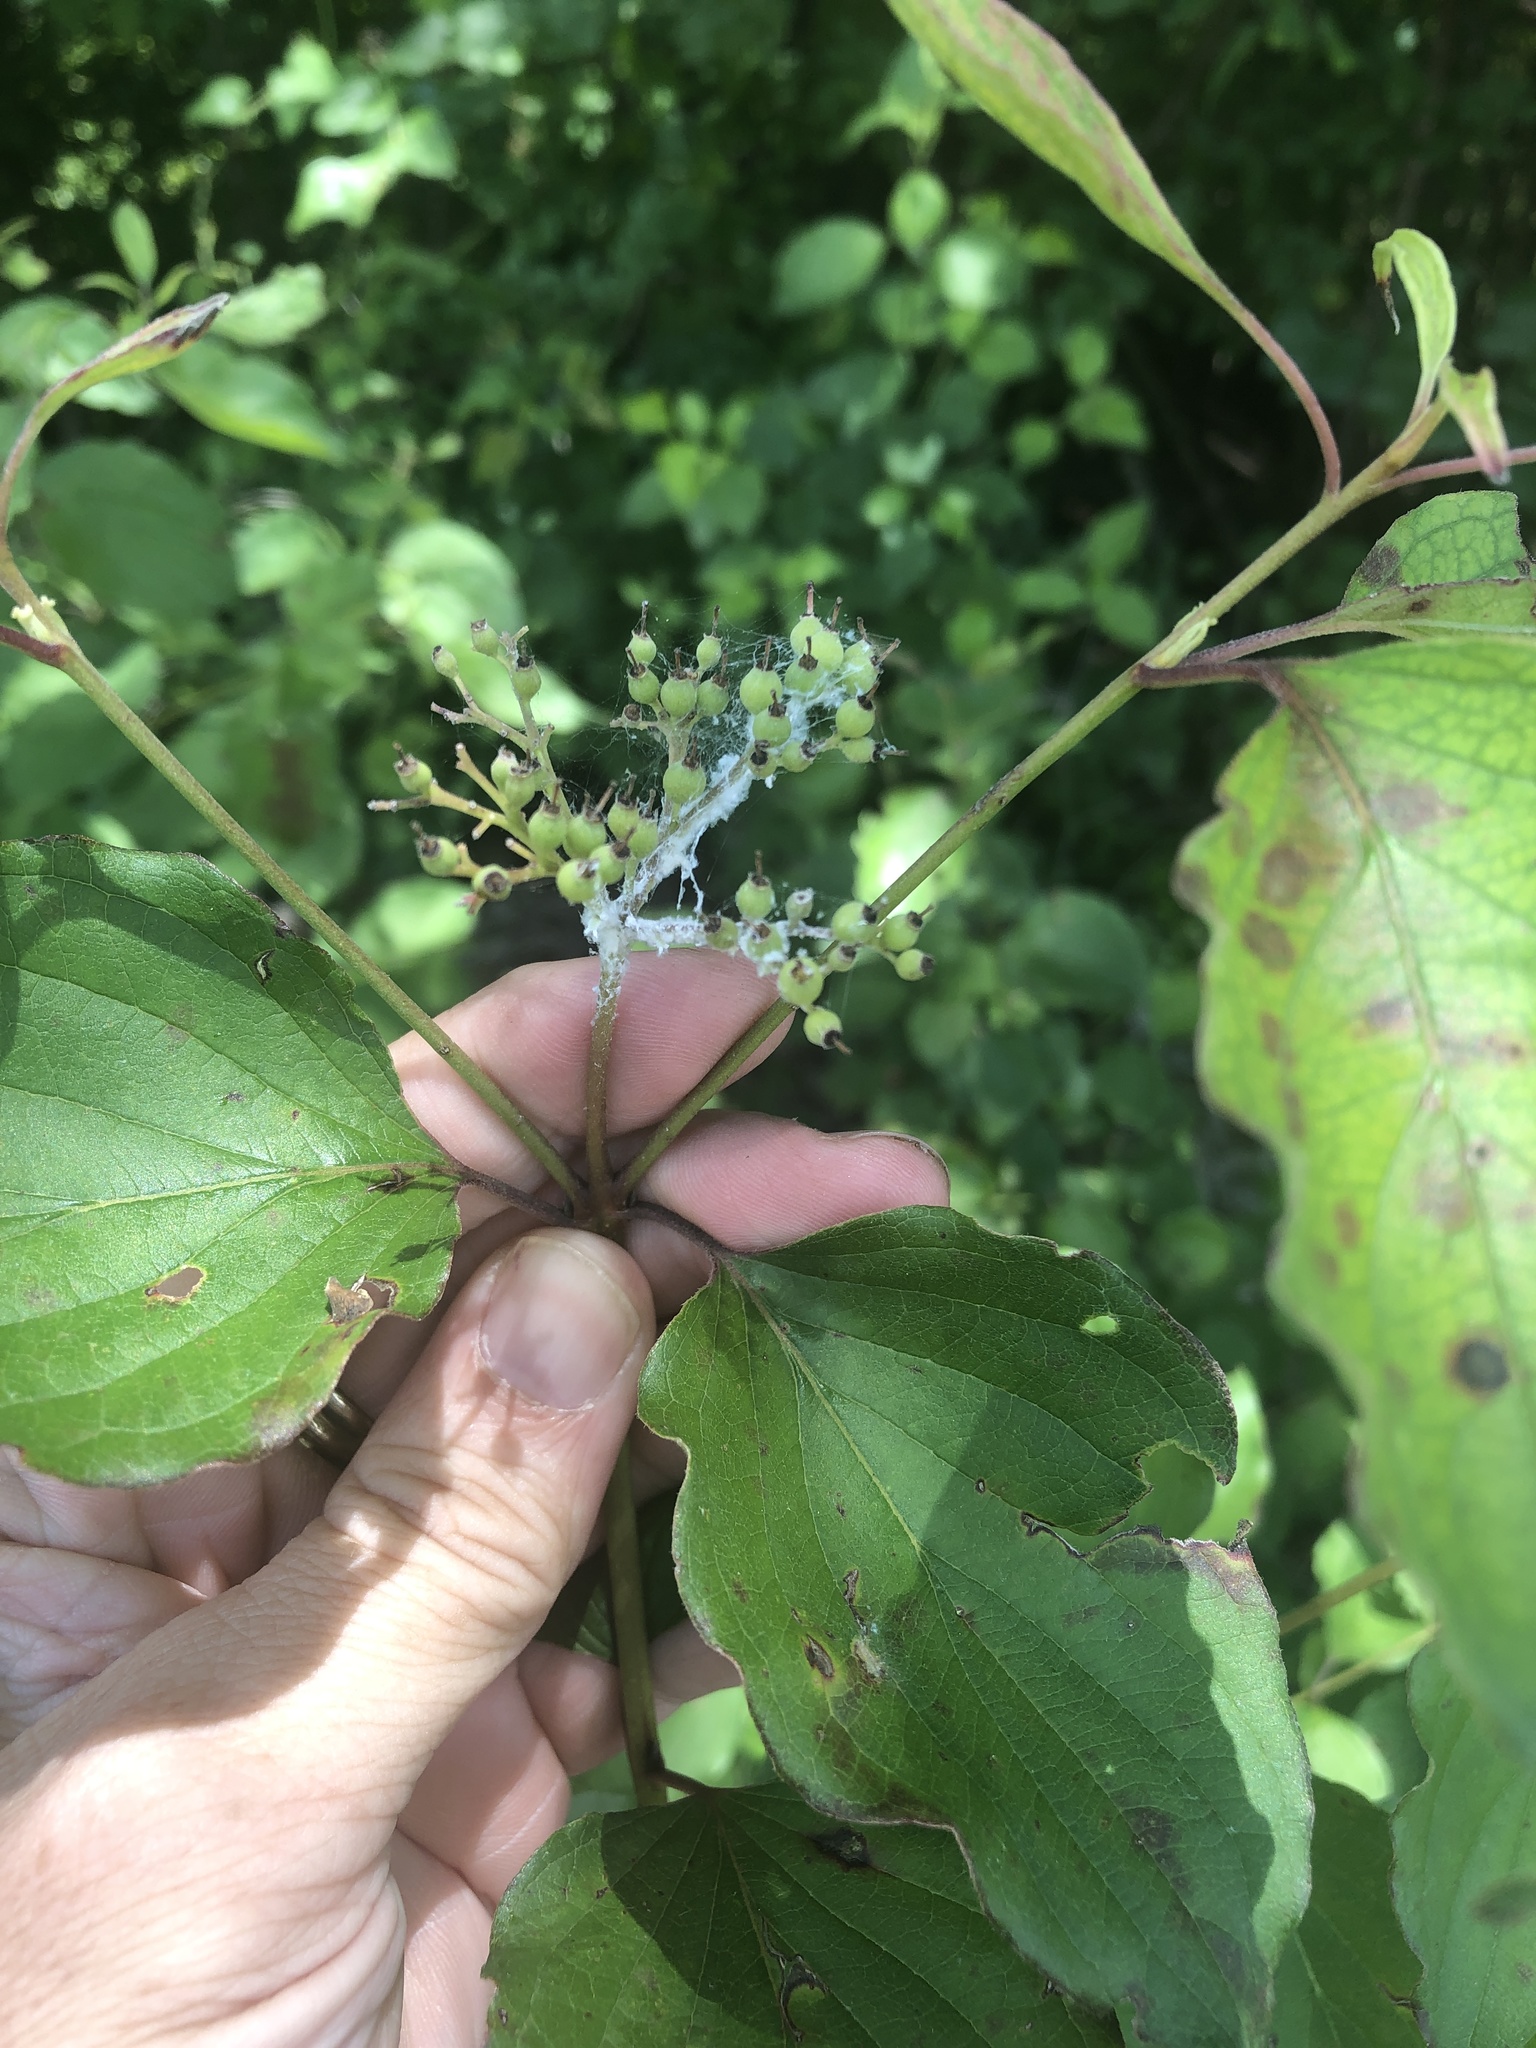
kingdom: Plantae
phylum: Tracheophyta
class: Magnoliopsida
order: Cornales
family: Cornaceae
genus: Cornus
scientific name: Cornus drummondii
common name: Rough-leaf dogwood
